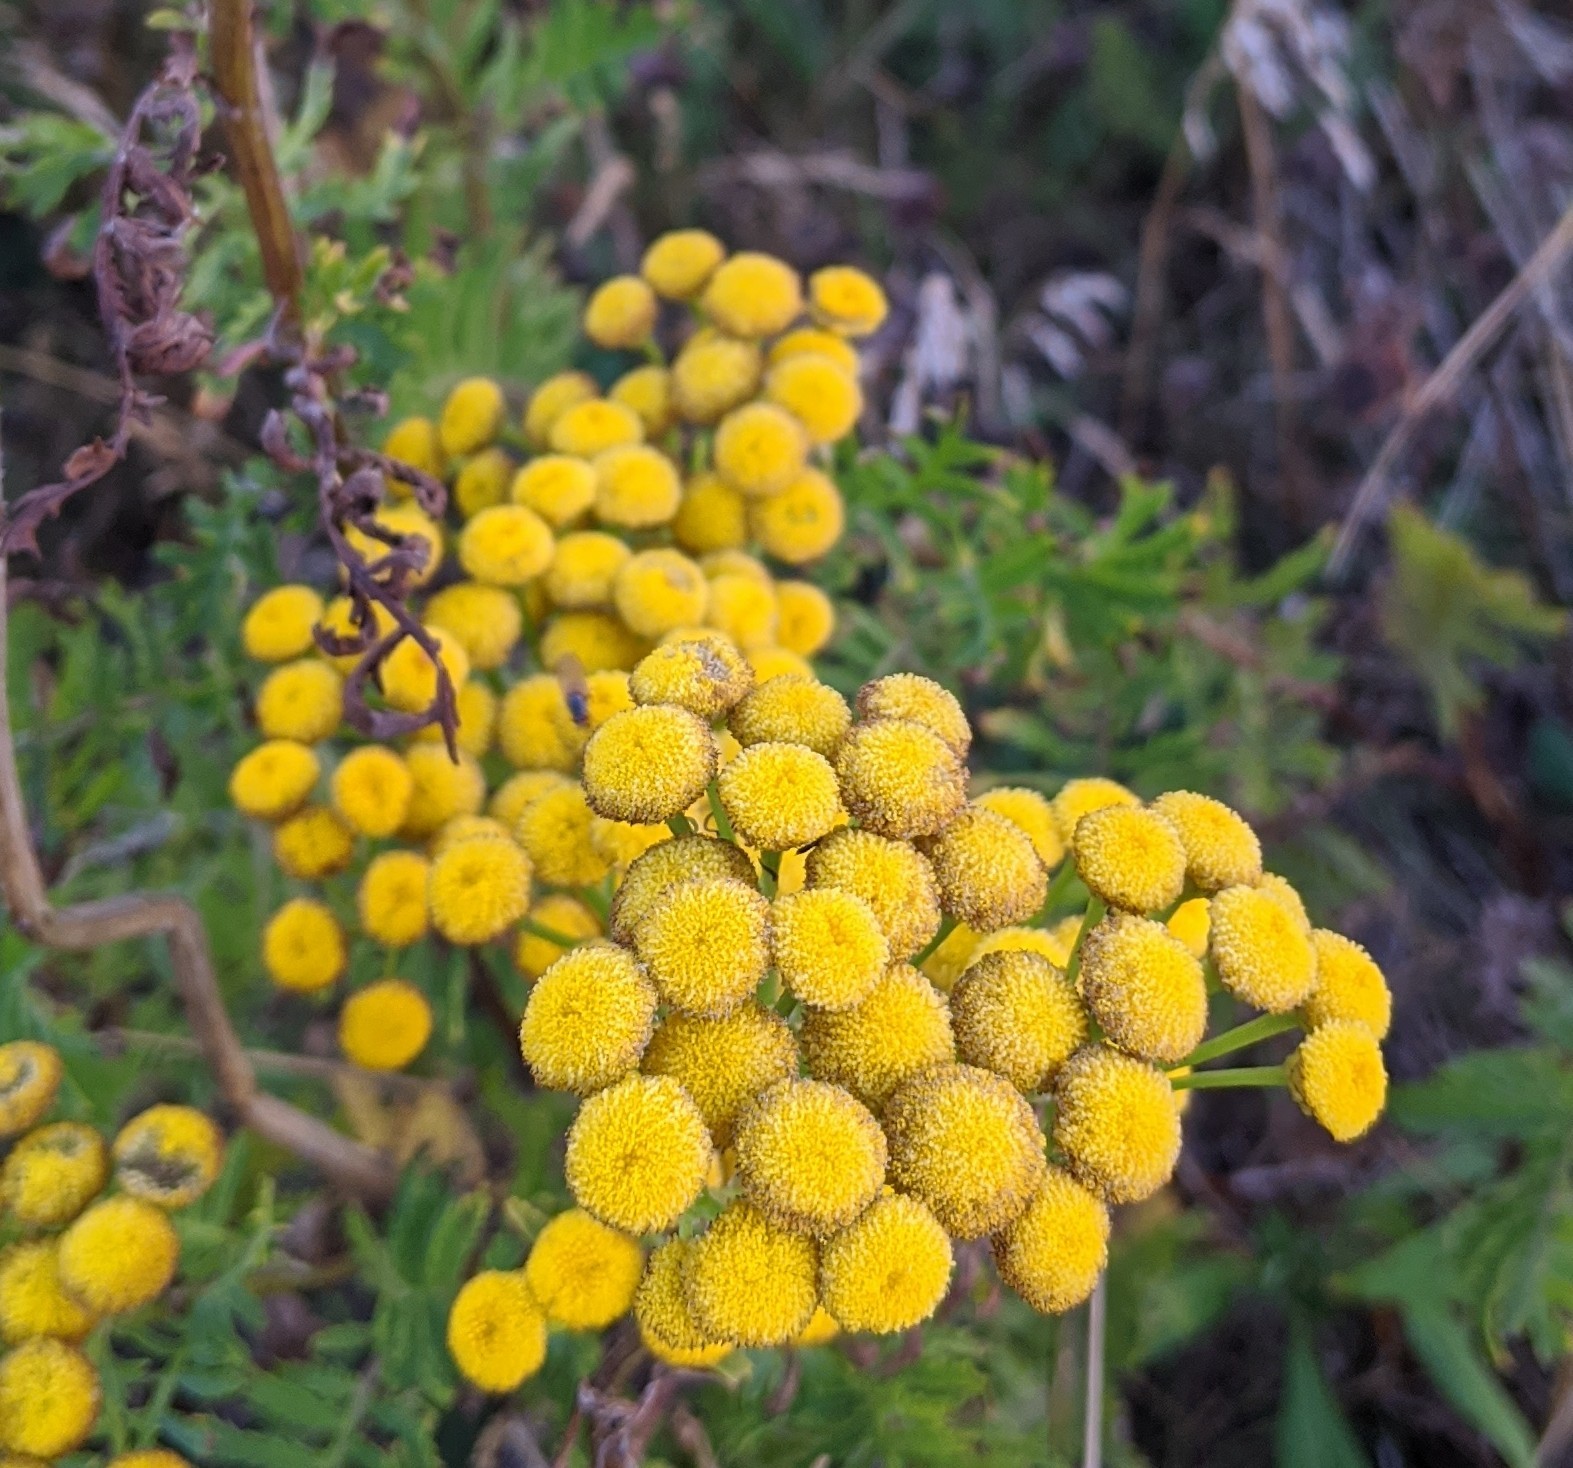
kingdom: Plantae
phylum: Tracheophyta
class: Magnoliopsida
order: Asterales
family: Asteraceae
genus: Tanacetum
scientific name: Tanacetum vulgare
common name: Common tansy
